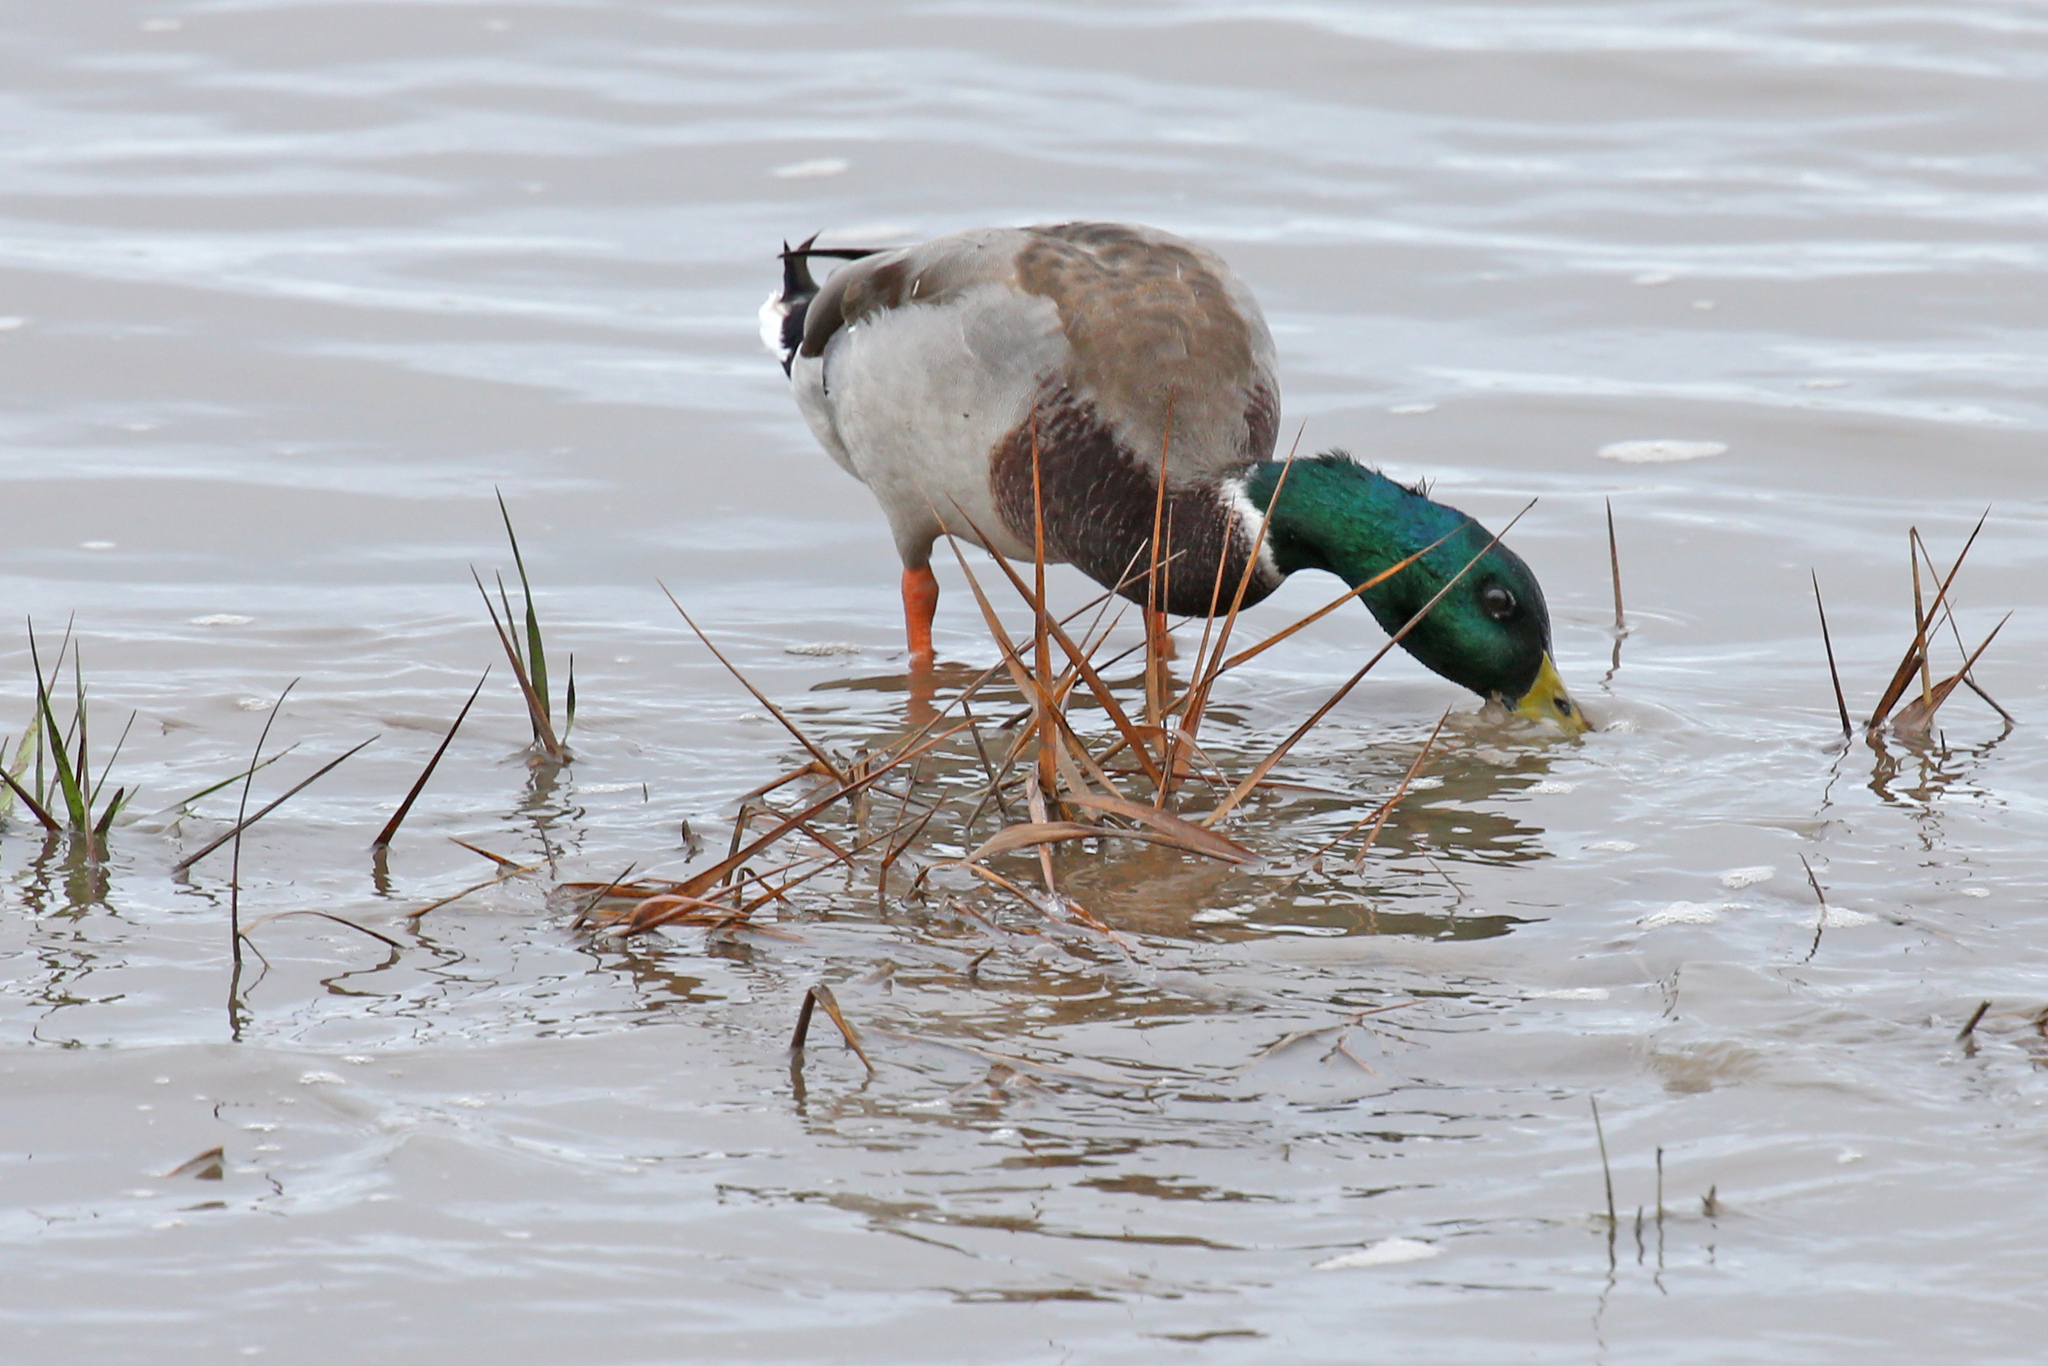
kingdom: Animalia
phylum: Chordata
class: Aves
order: Anseriformes
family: Anatidae
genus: Anas
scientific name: Anas platyrhynchos
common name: Mallard
